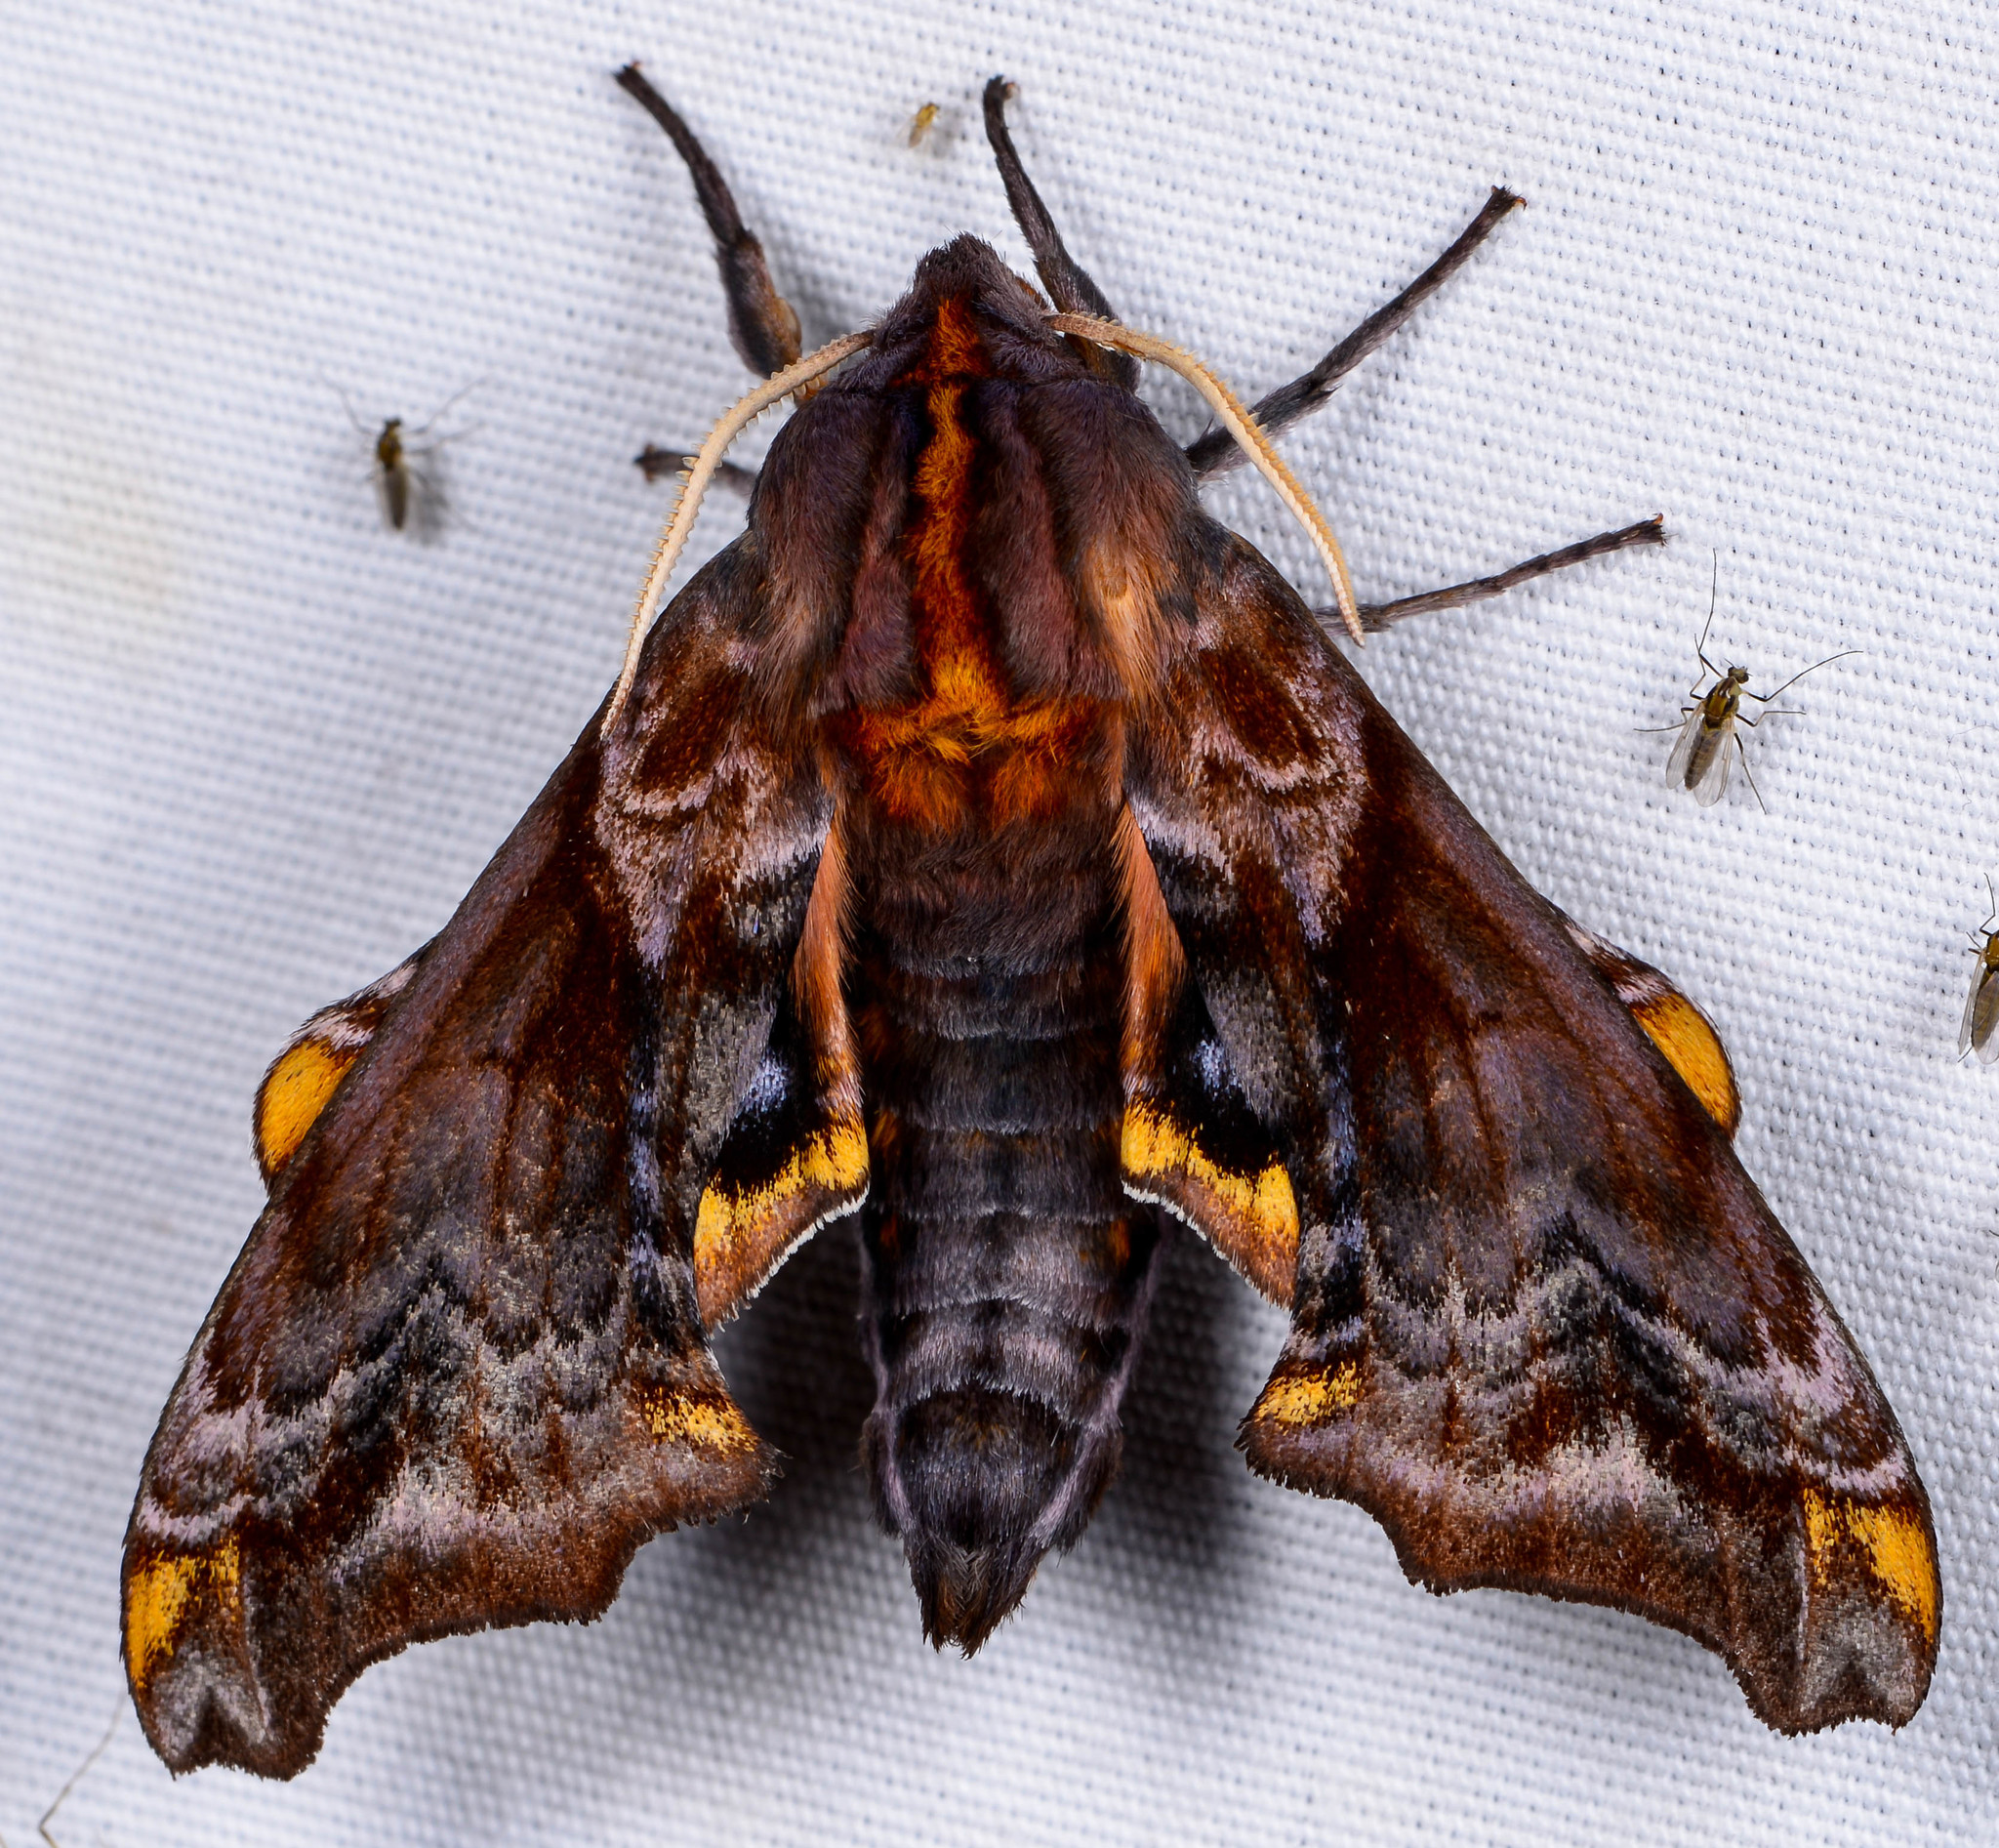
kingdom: Animalia
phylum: Arthropoda
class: Insecta
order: Lepidoptera
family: Sphingidae
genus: Paonias
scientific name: Paonias myops
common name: Small-eyed sphinx
